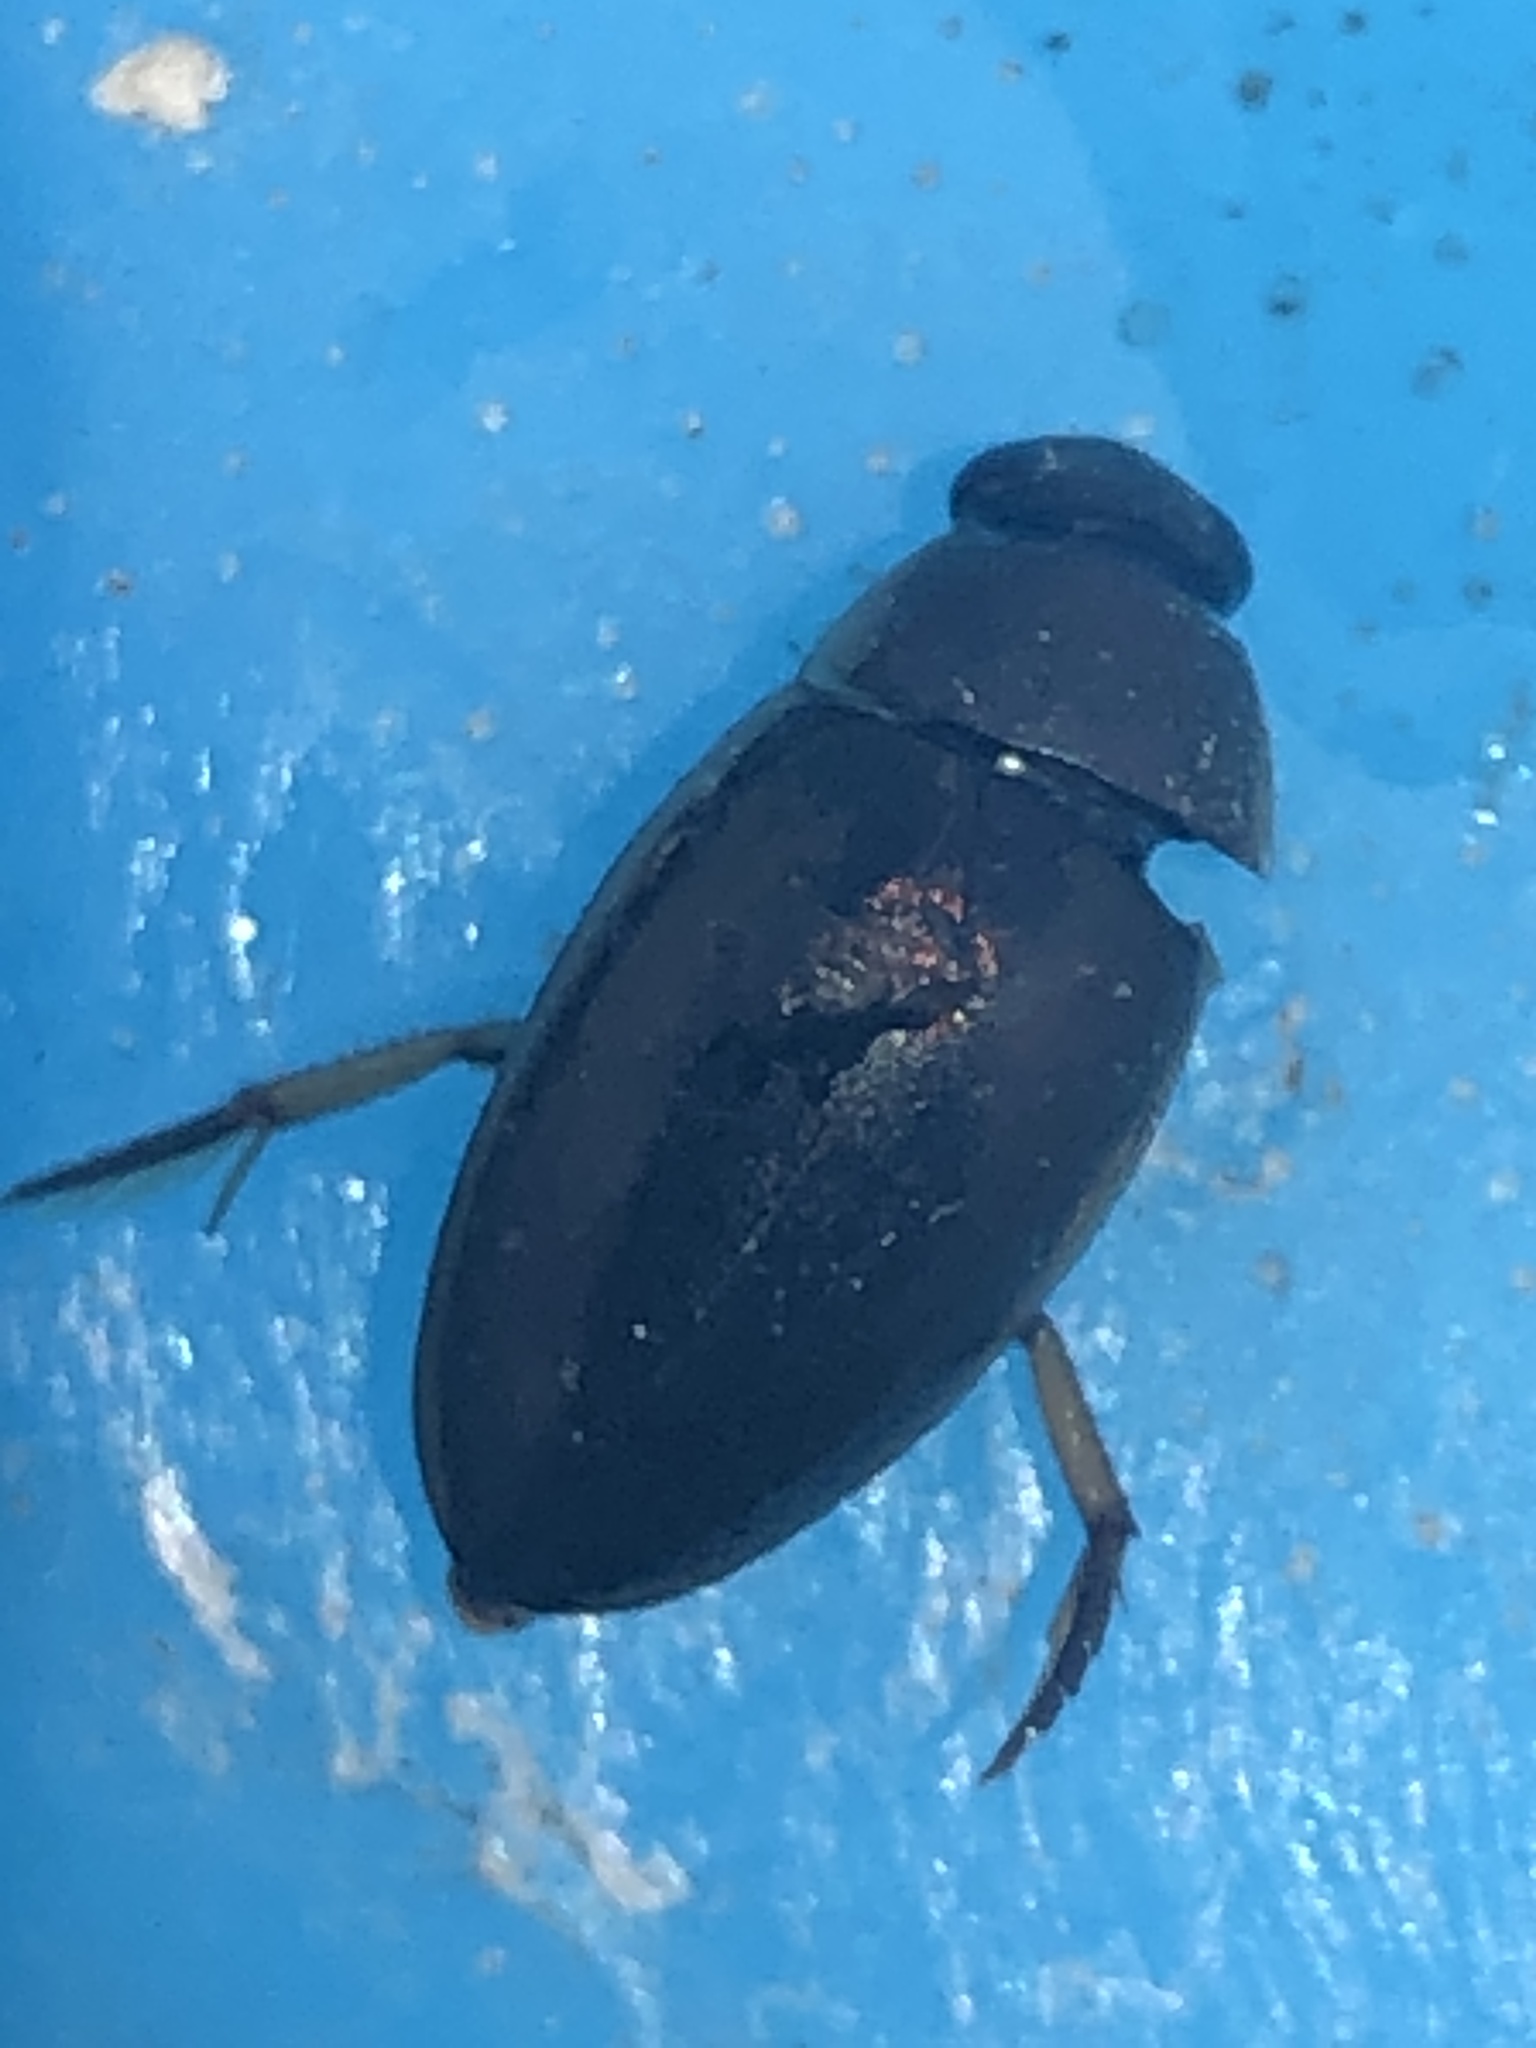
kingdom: Animalia
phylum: Arthropoda
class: Insecta
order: Coleoptera
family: Hydrophilidae
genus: Tropisternus
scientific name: Tropisternus lateralis
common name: Lateral-banded water scavenger beetle
